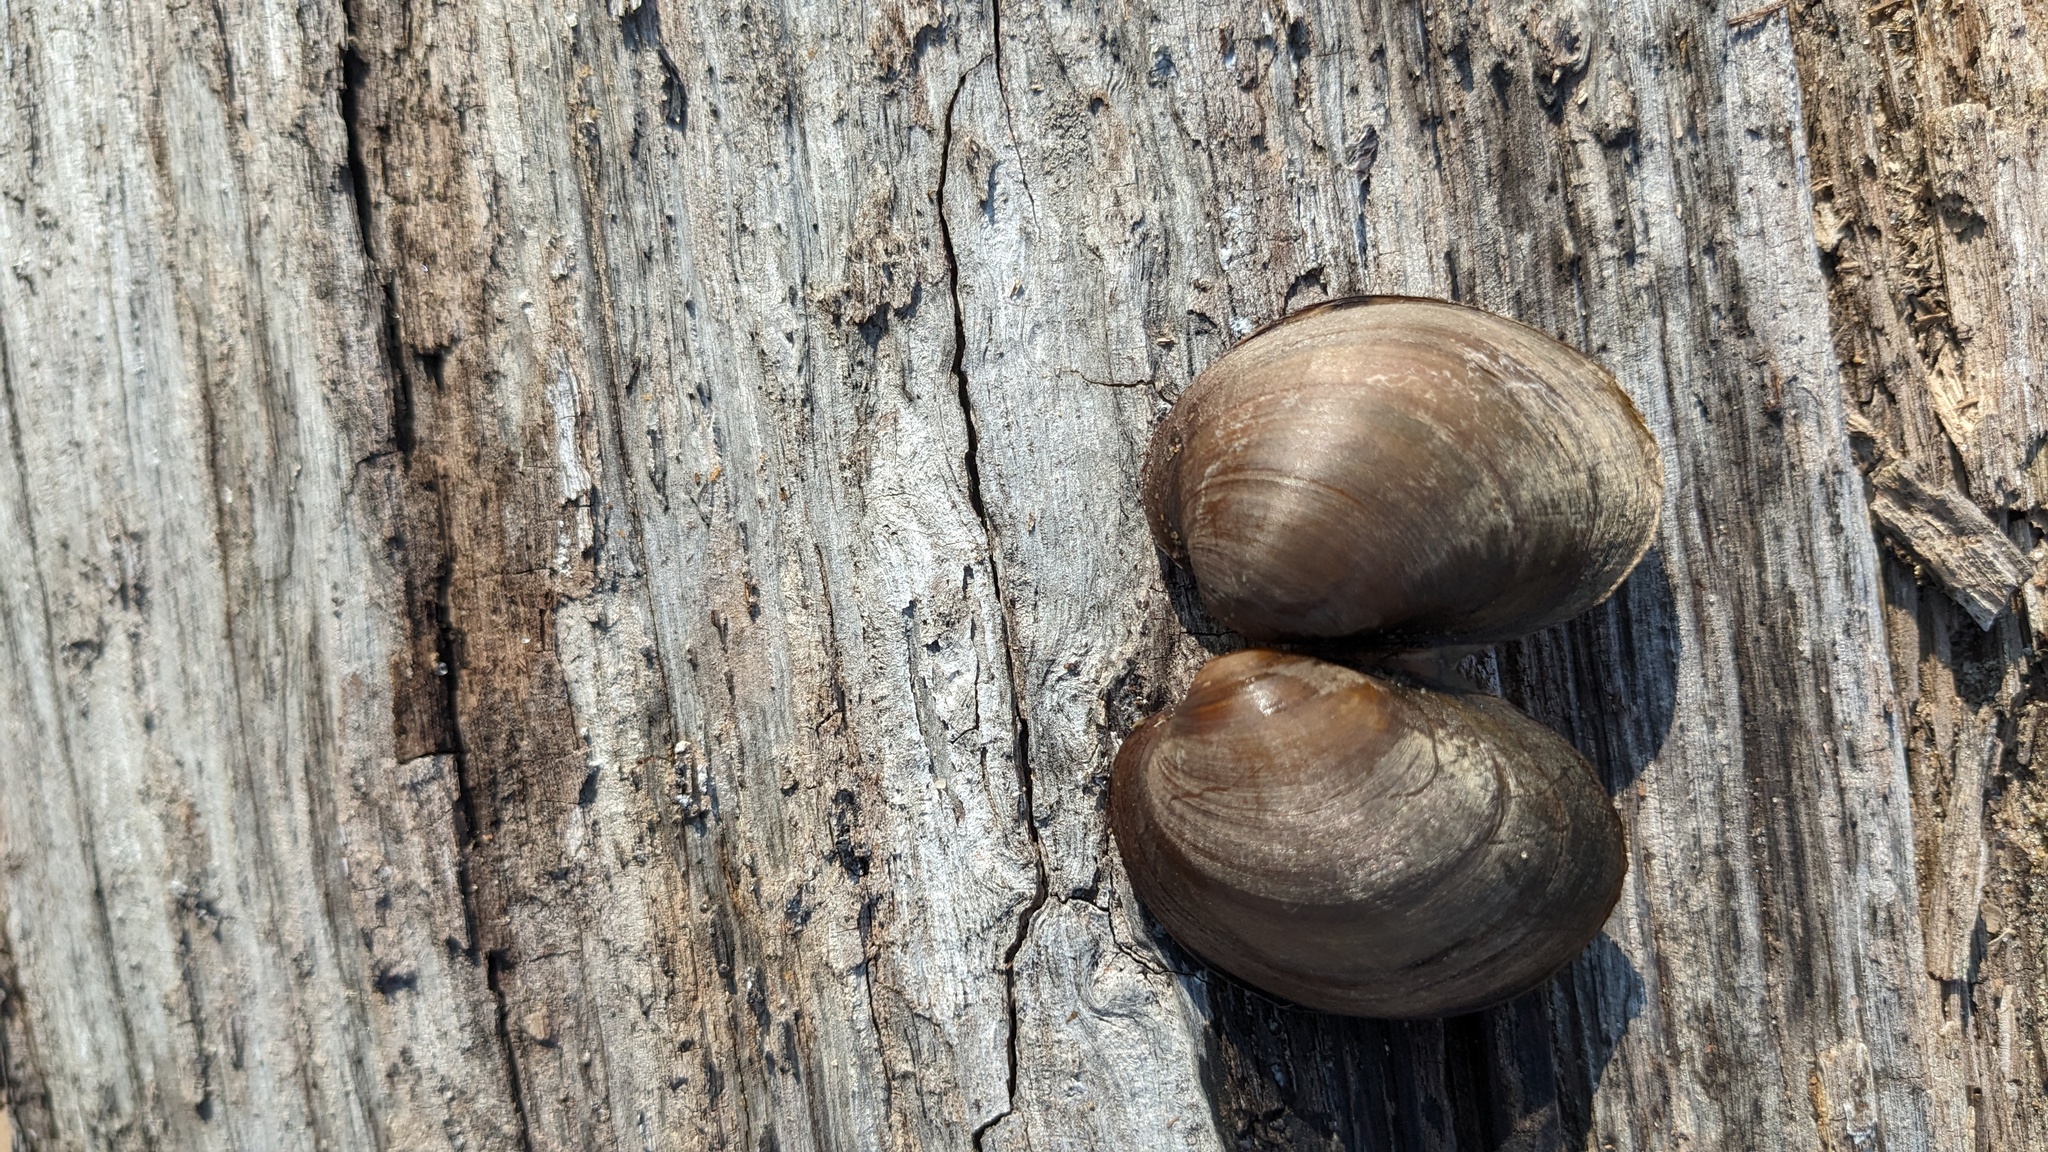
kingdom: Animalia
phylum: Mollusca
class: Bivalvia
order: Unionida
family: Unionidae
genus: Obovaria
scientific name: Obovaria olivaria
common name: Hickorynut
